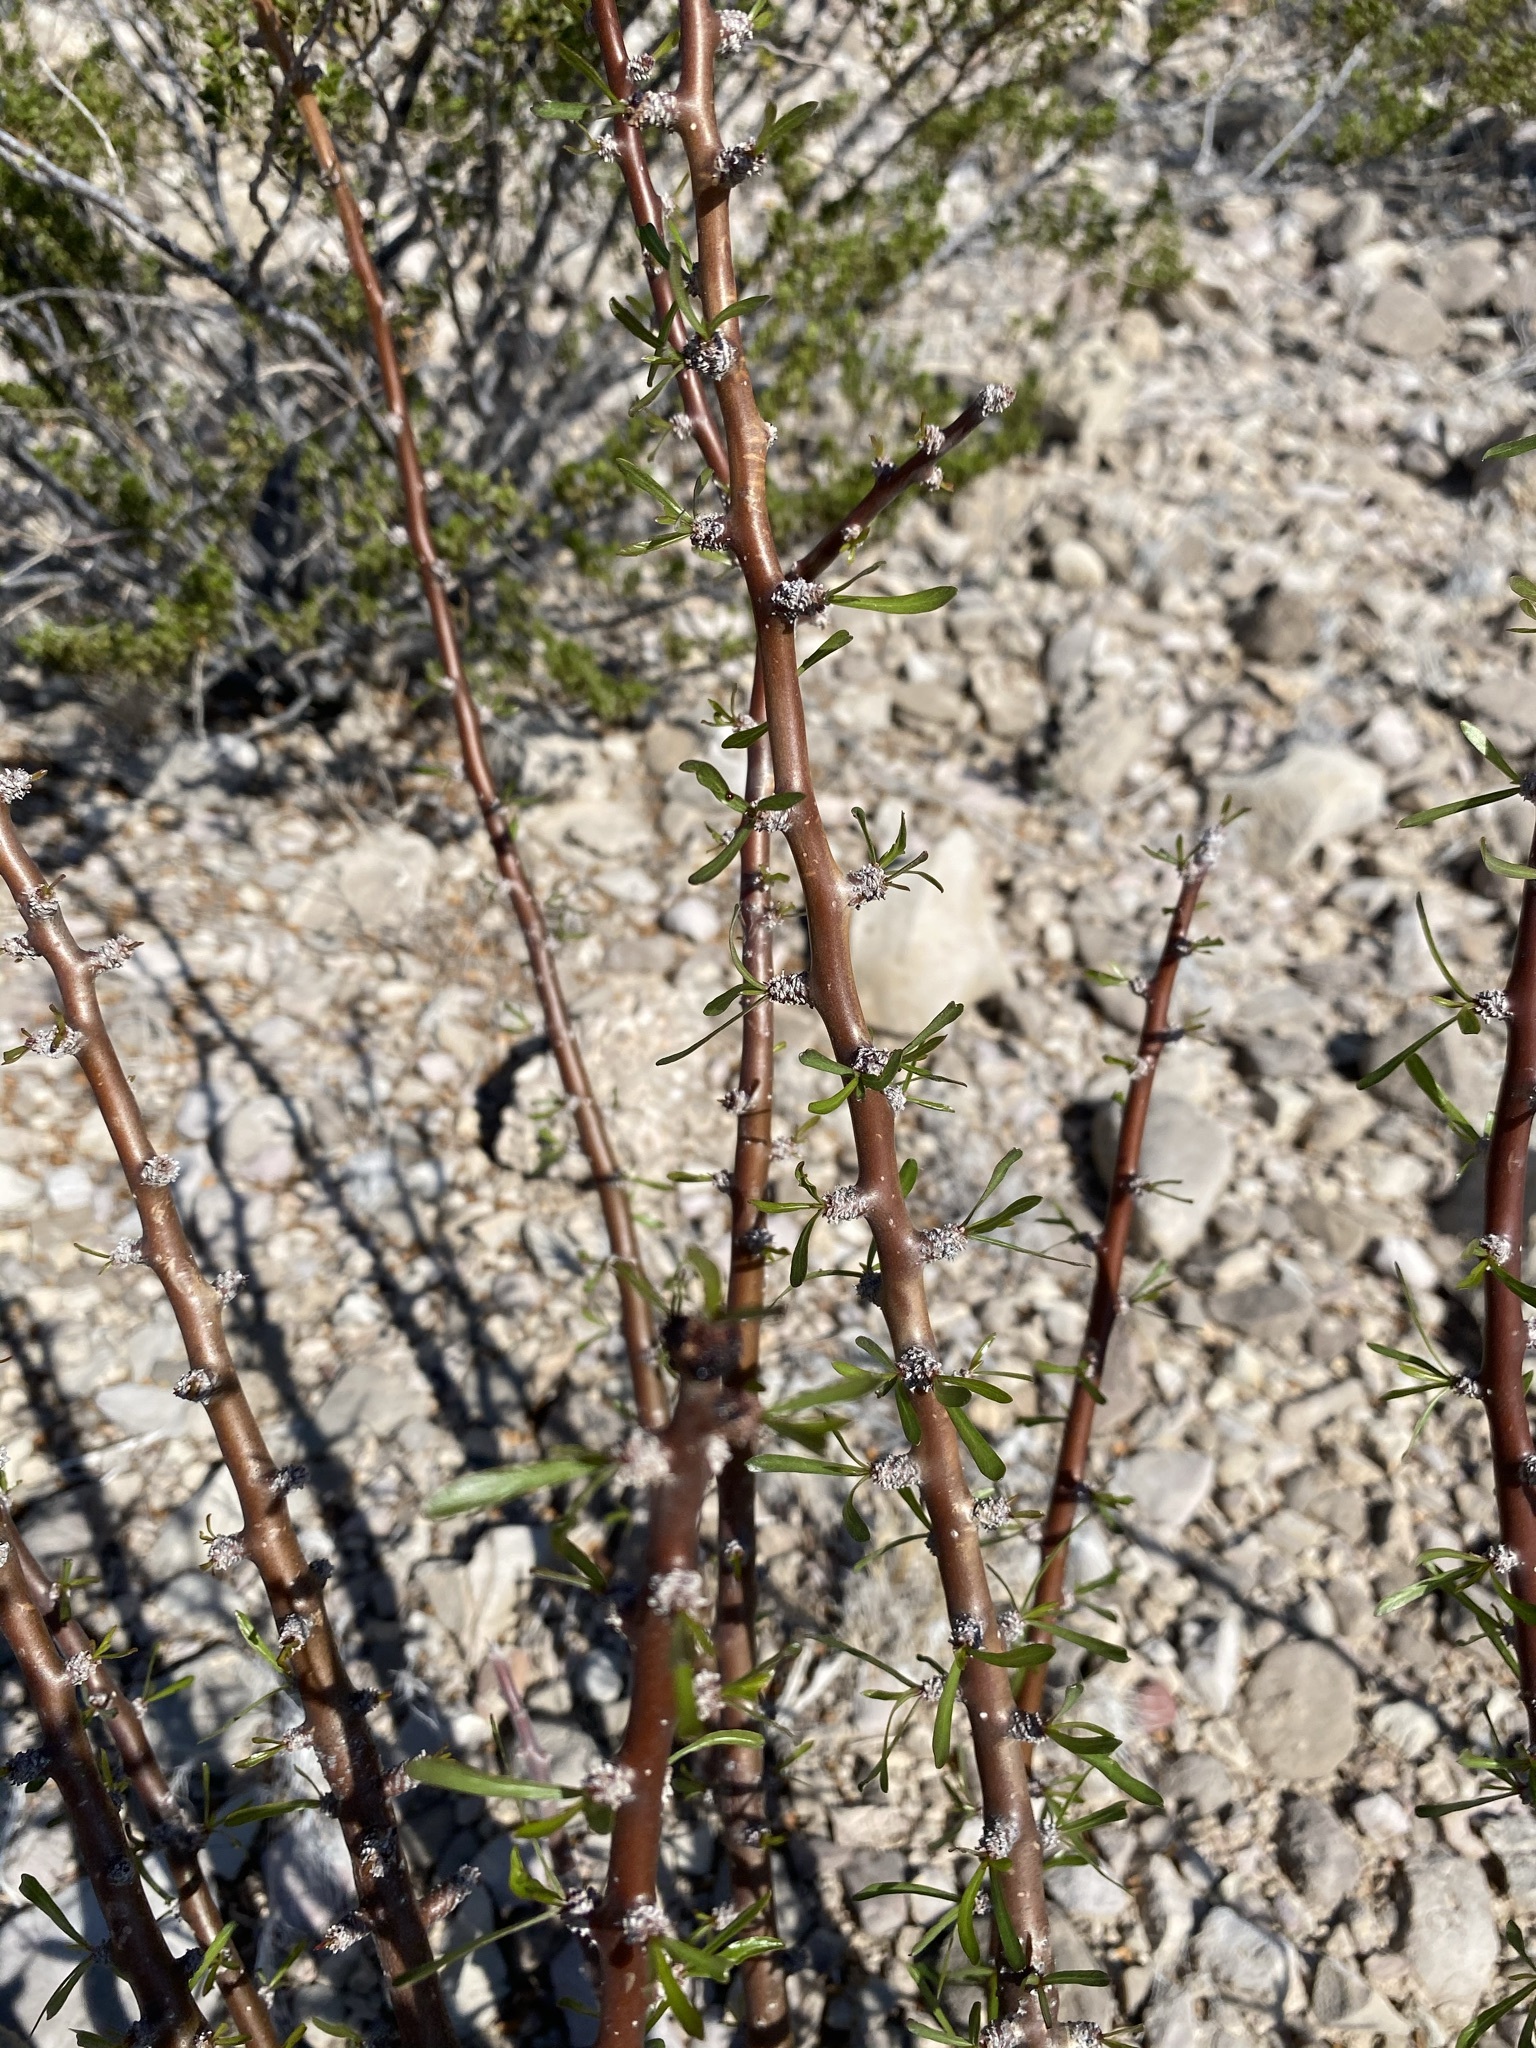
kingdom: Plantae
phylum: Tracheophyta
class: Magnoliopsida
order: Malpighiales
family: Euphorbiaceae
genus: Jatropha
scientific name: Jatropha dioica
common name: Leatherstem
